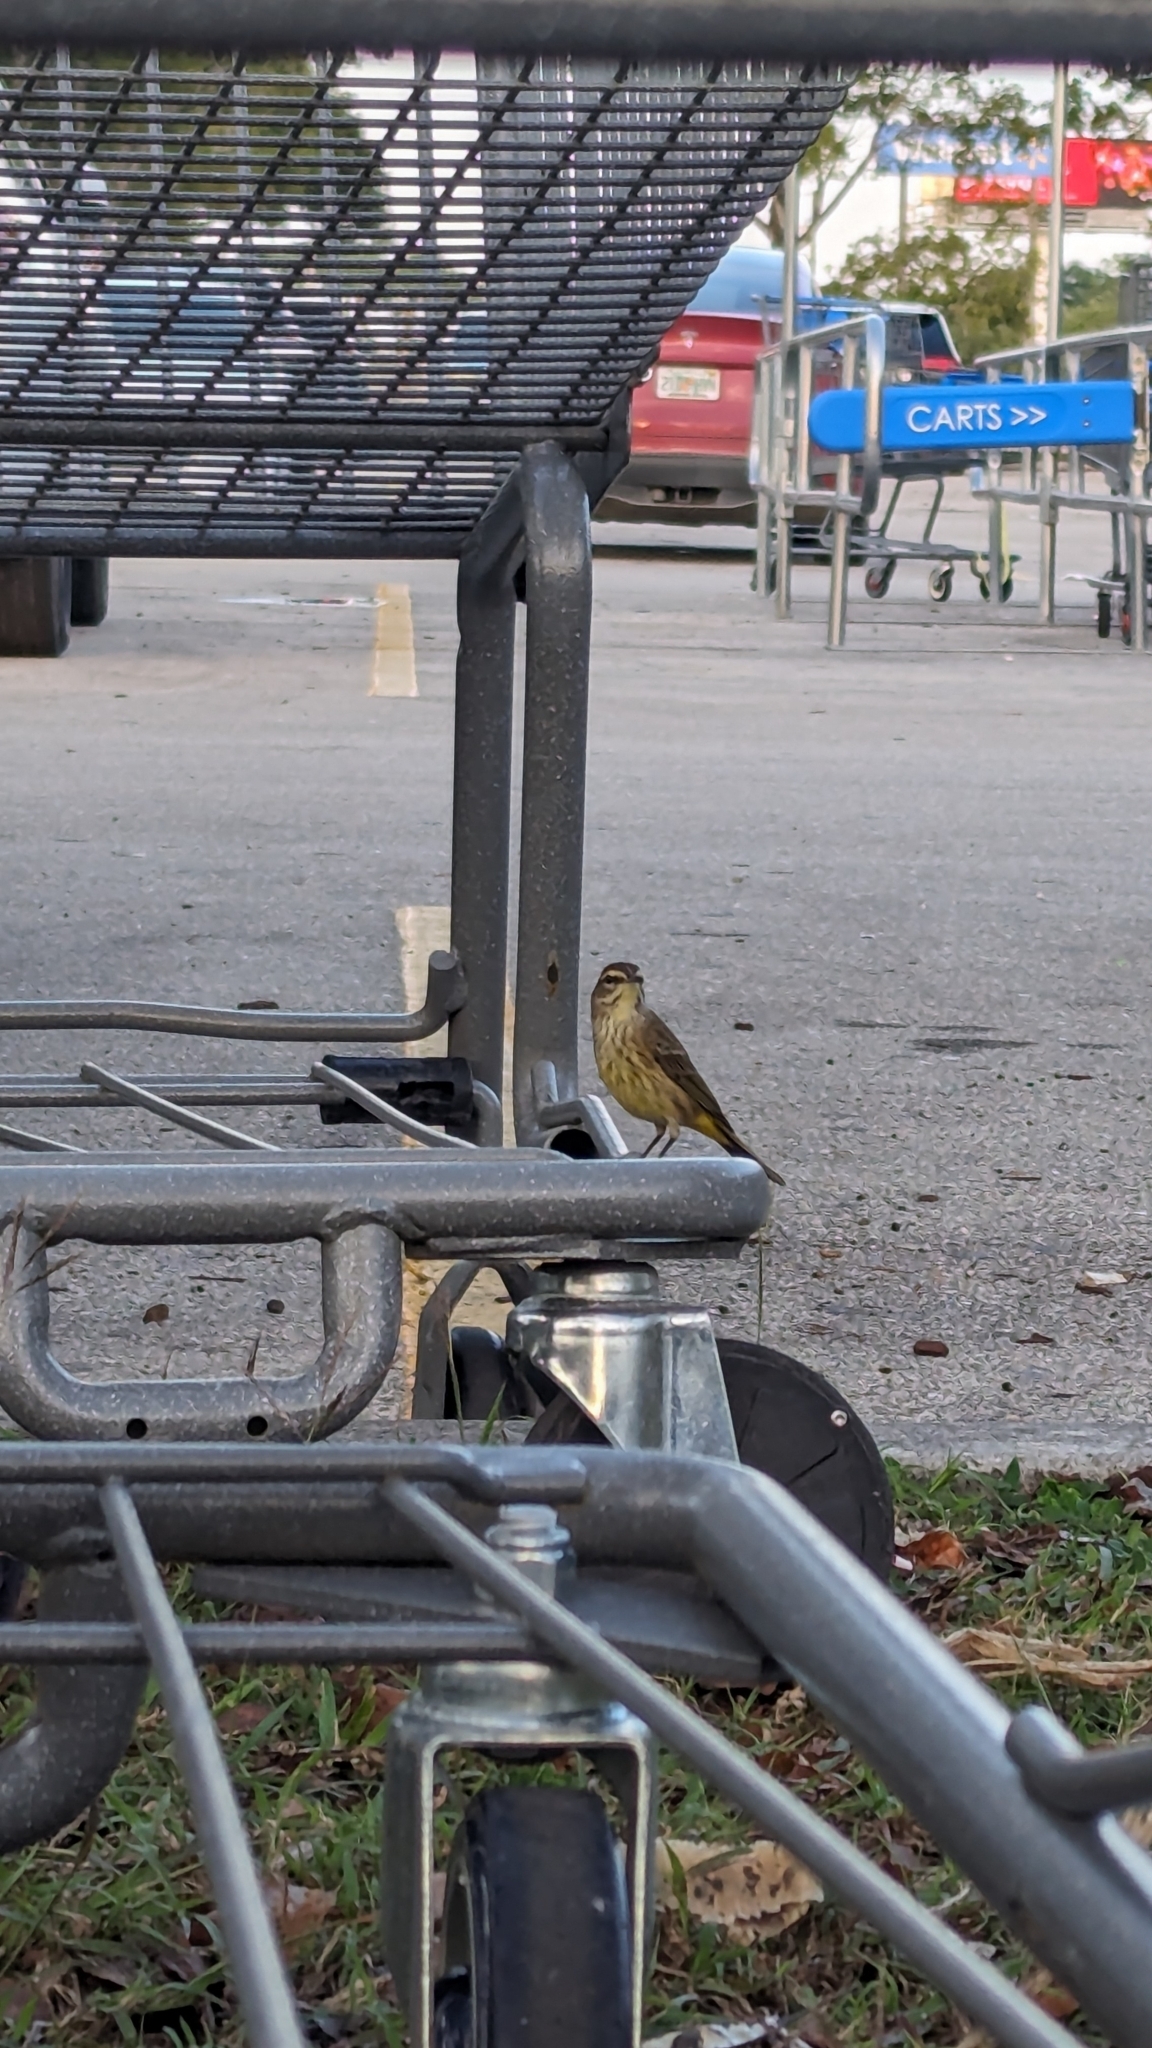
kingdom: Animalia
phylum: Chordata
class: Aves
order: Passeriformes
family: Parulidae
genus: Setophaga
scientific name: Setophaga palmarum
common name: Palm warbler
